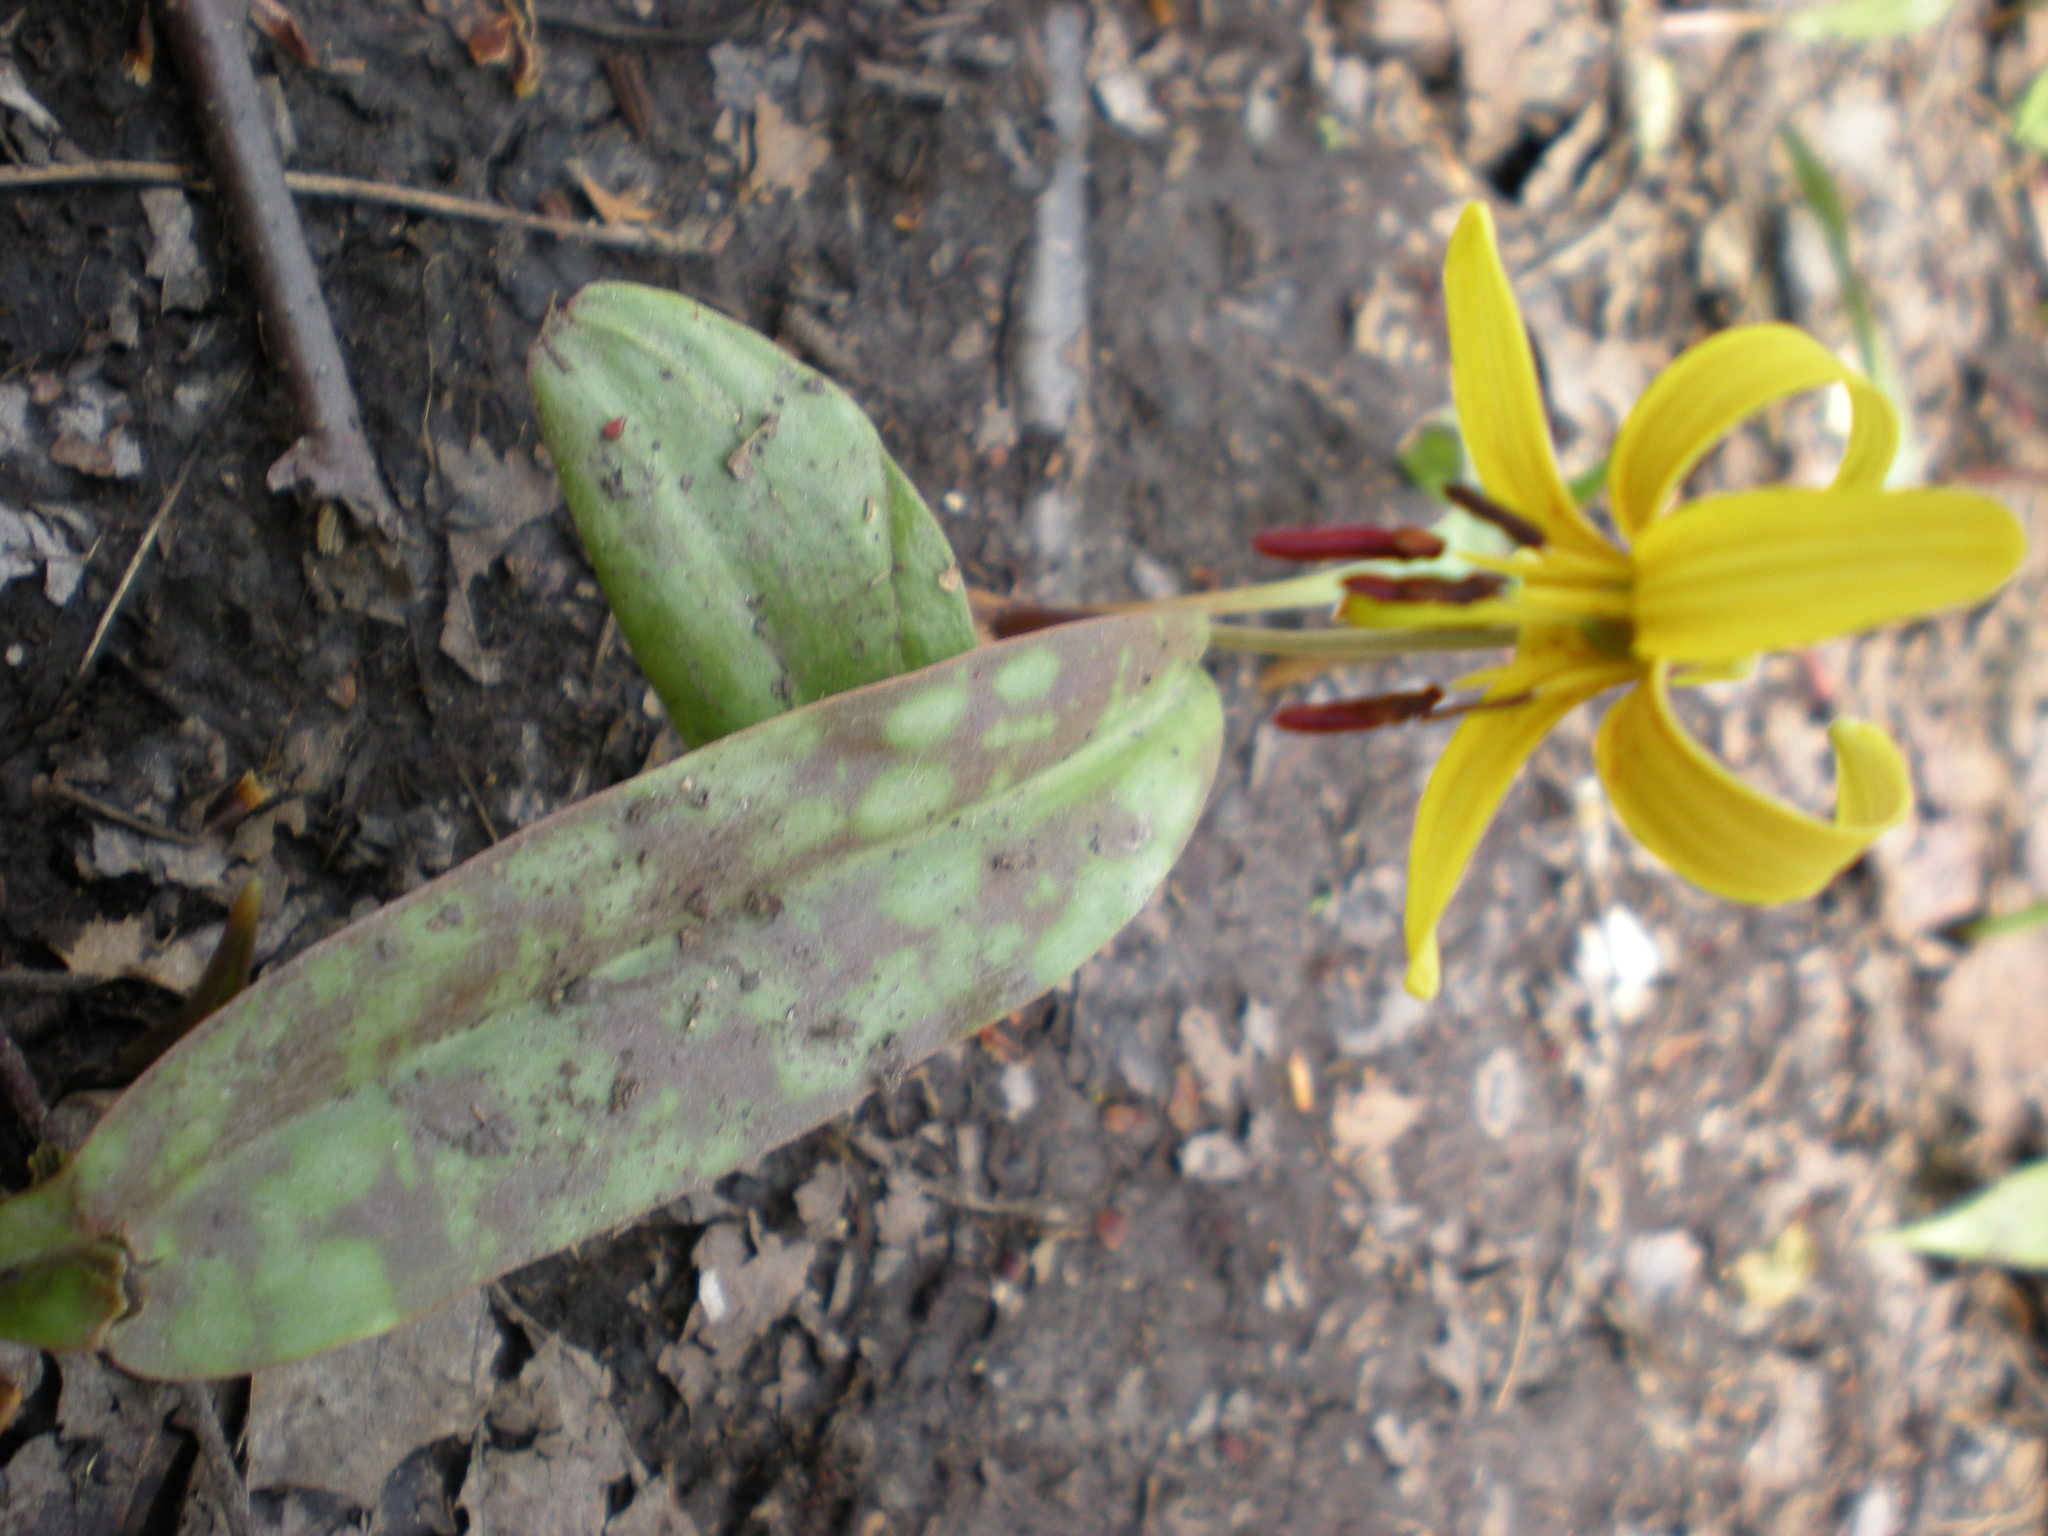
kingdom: Plantae
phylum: Tracheophyta
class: Liliopsida
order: Liliales
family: Liliaceae
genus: Erythronium
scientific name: Erythronium americanum
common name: Yellow adder's-tongue
